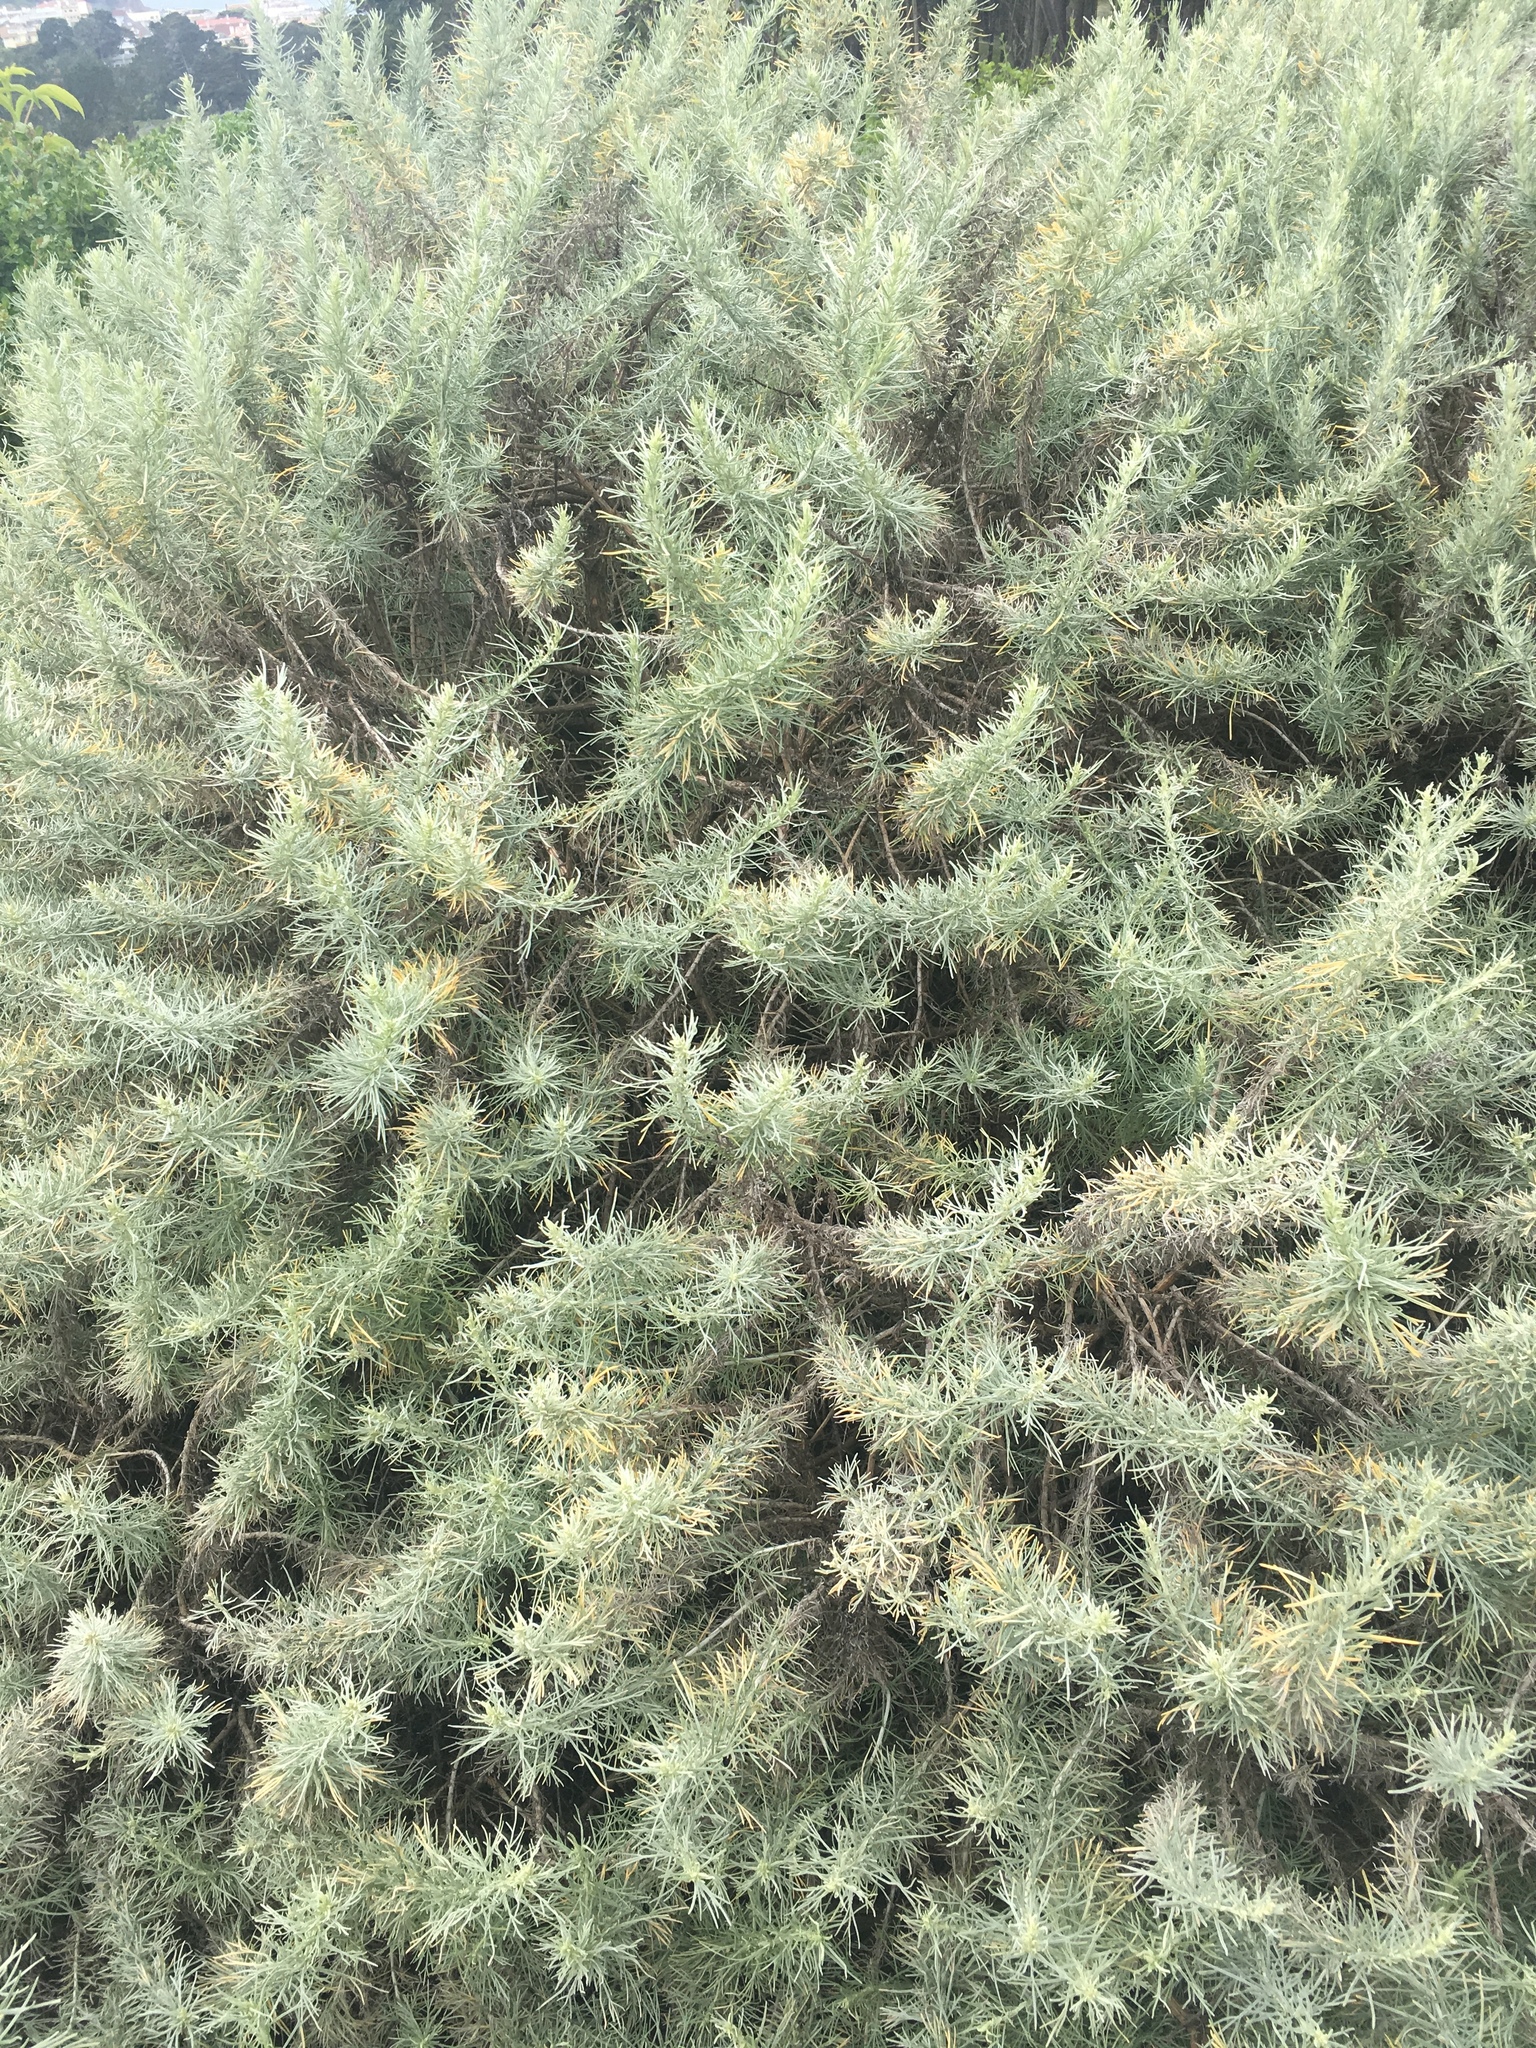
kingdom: Plantae
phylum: Tracheophyta
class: Magnoliopsida
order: Asterales
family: Asteraceae
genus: Artemisia
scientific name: Artemisia californica
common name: California sagebrush
